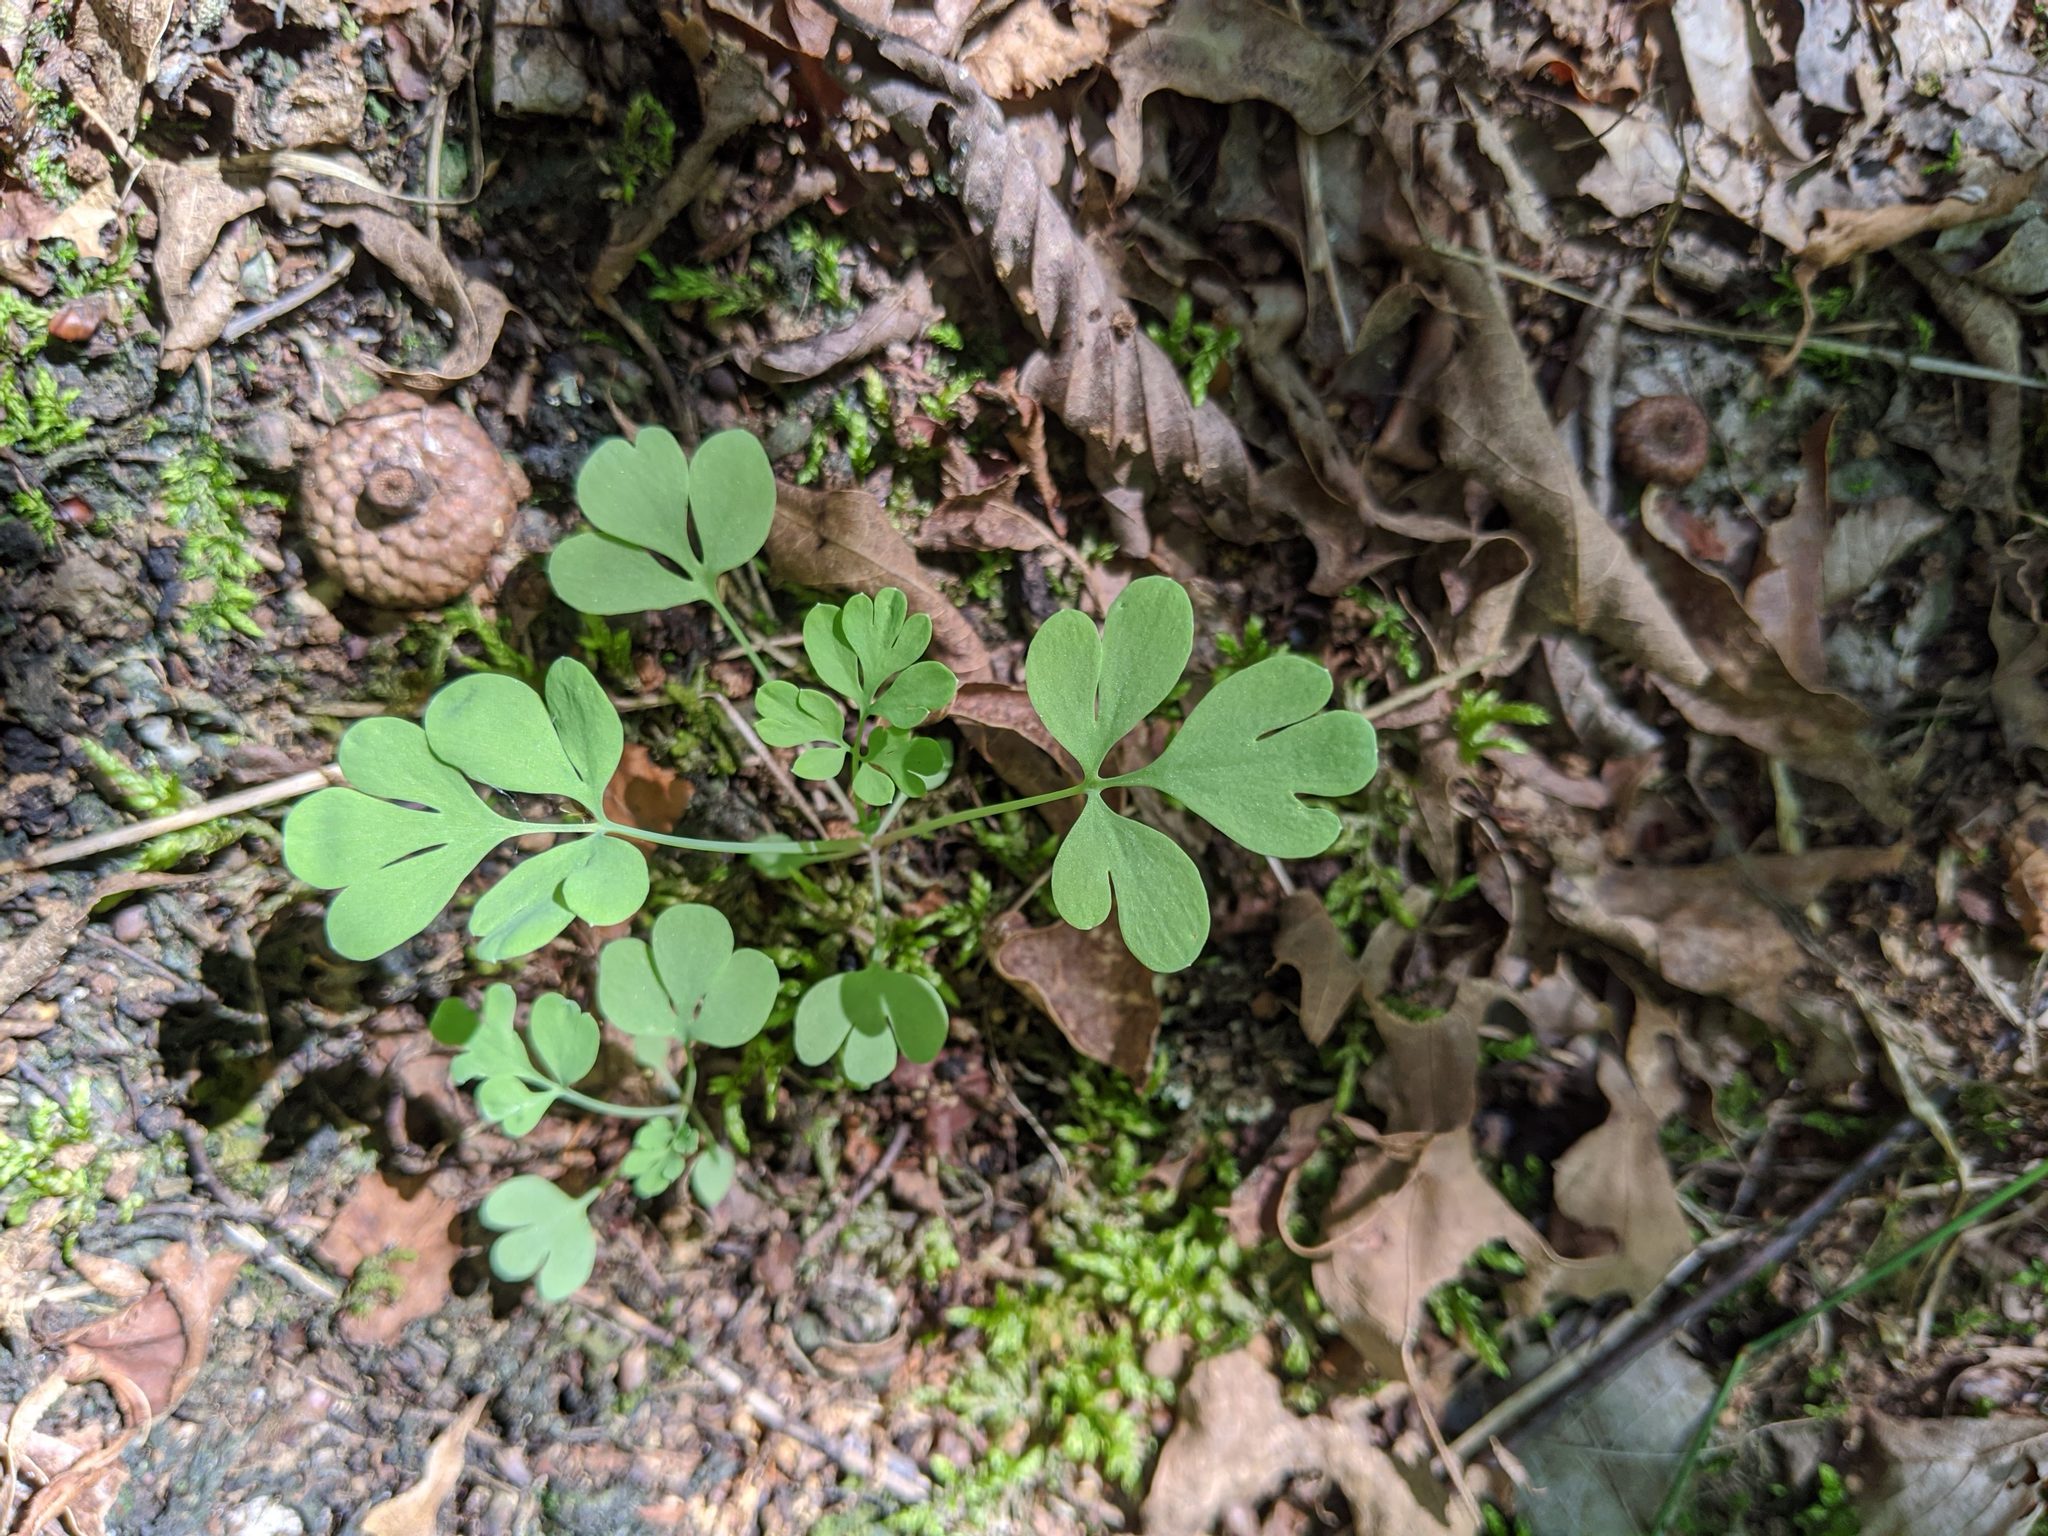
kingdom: Plantae
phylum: Tracheophyta
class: Magnoliopsida
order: Ranunculales
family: Papaveraceae
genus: Capnoides
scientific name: Capnoides sempervirens
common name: Rock harlequin
